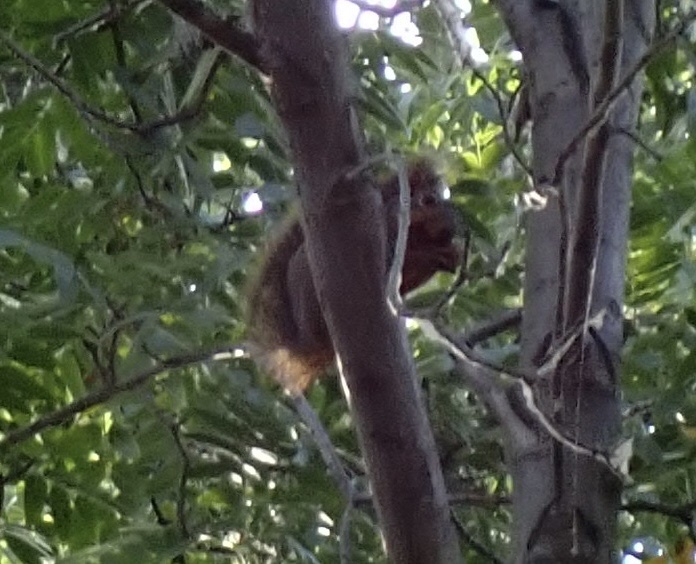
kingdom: Animalia
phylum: Chordata
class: Mammalia
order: Rodentia
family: Sciuridae
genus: Sciurus
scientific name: Sciurus niger
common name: Fox squirrel
